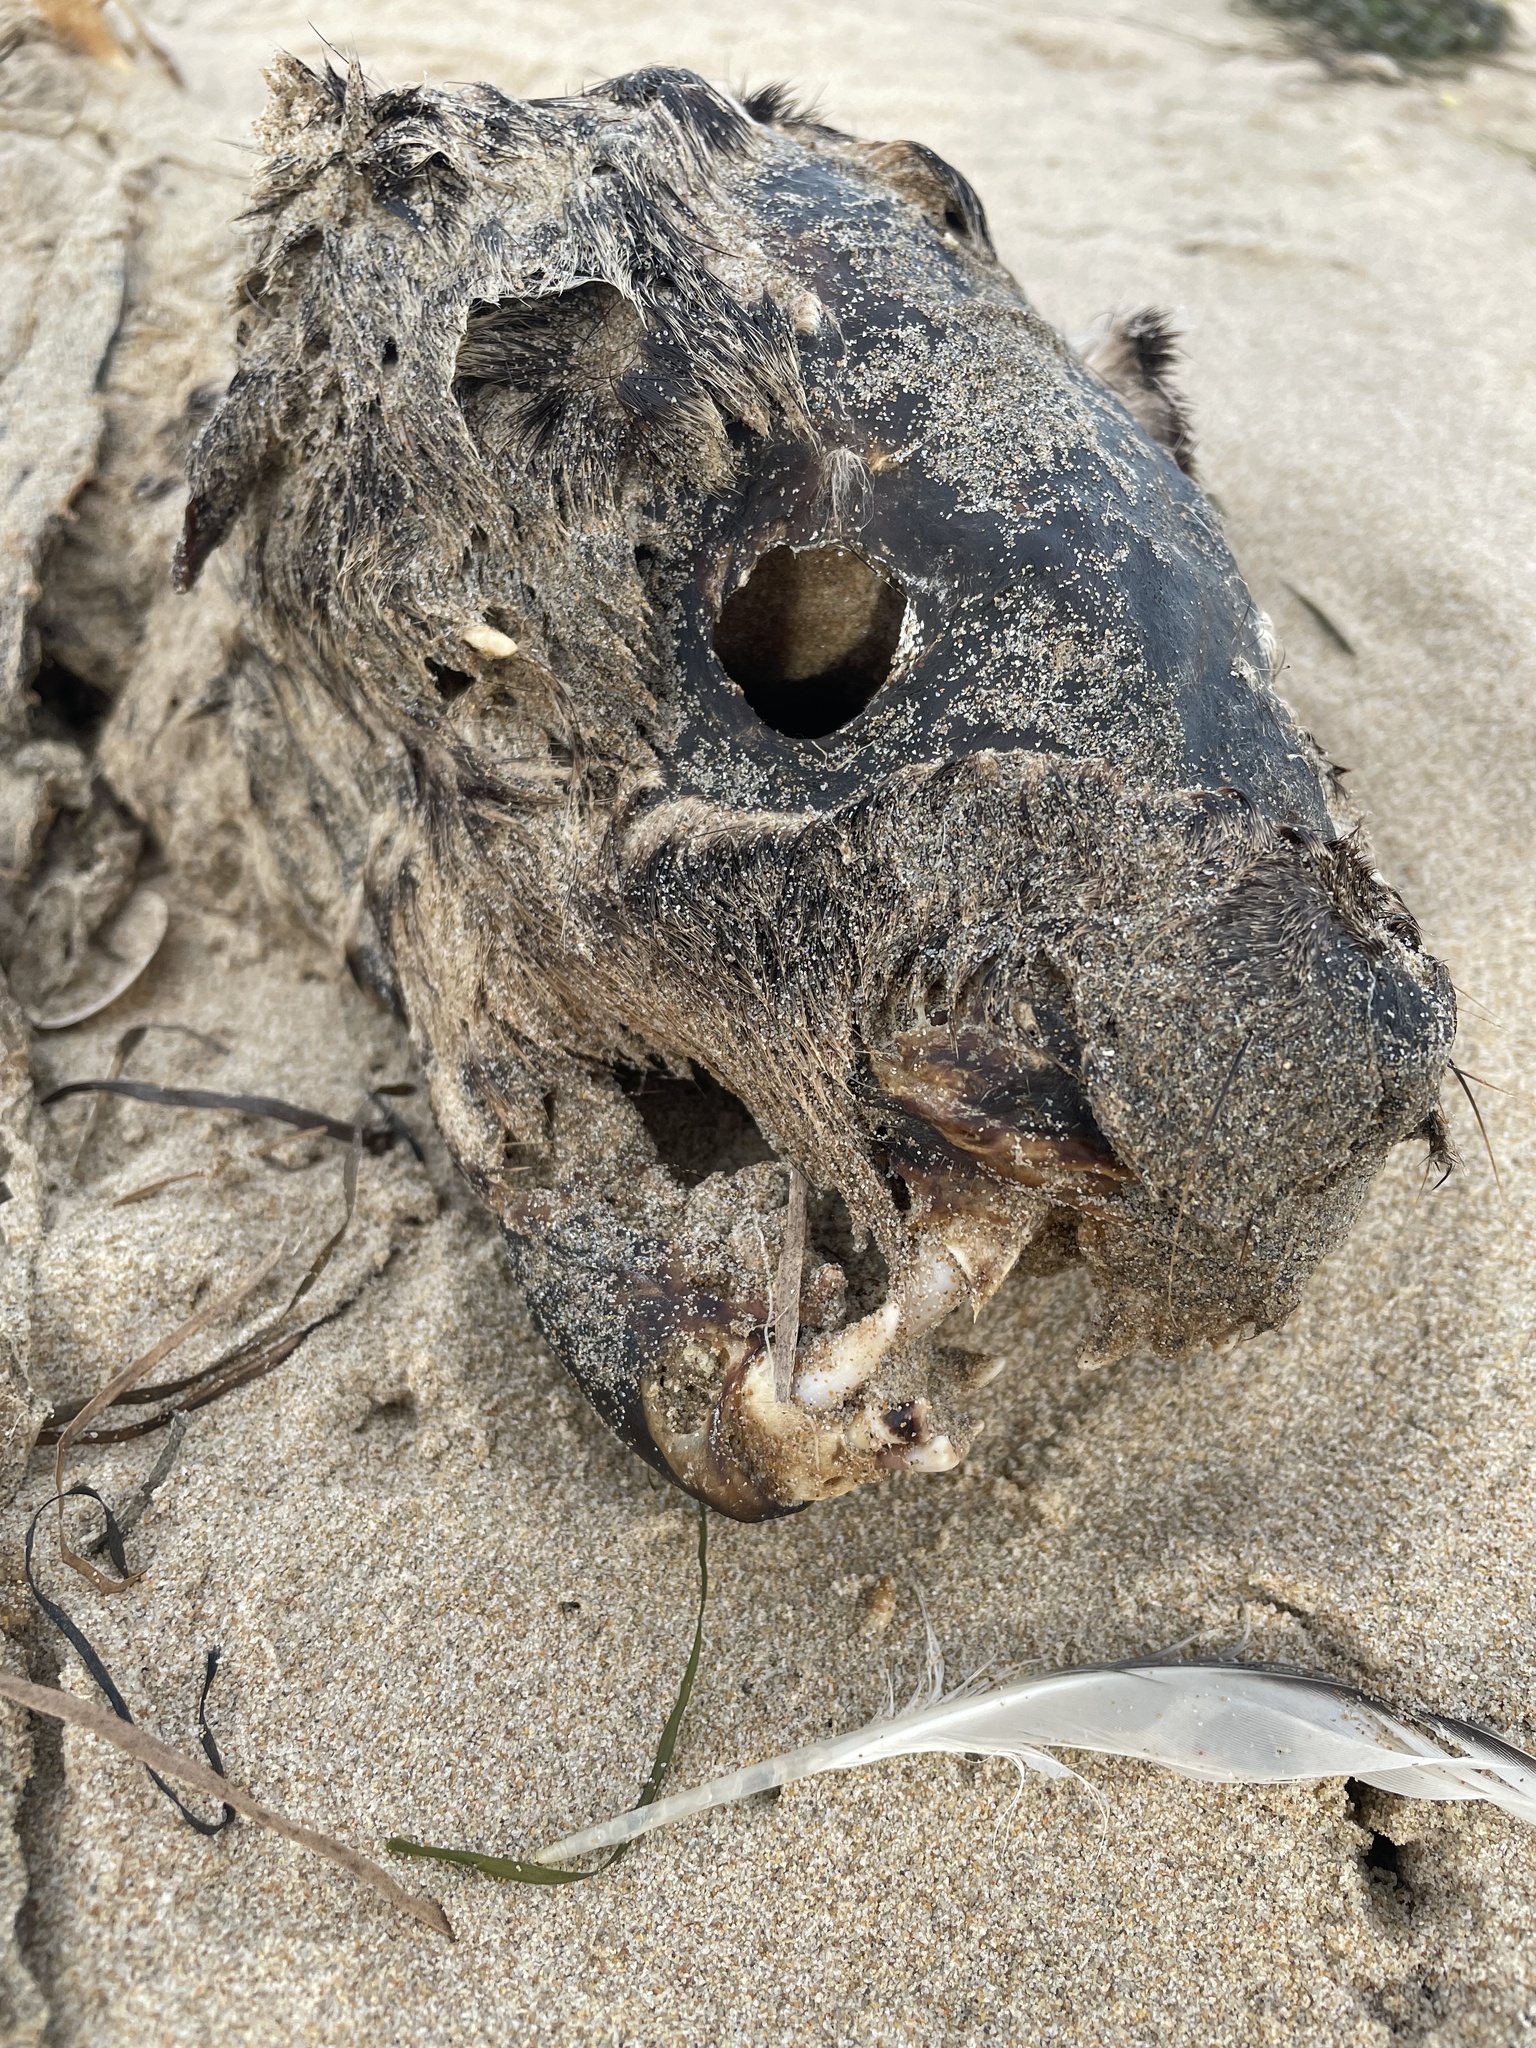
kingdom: Animalia
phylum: Chordata
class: Mammalia
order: Carnivora
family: Otariidae
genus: Arctocephalus
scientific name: Arctocephalus pusillus
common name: Brown fur seal
